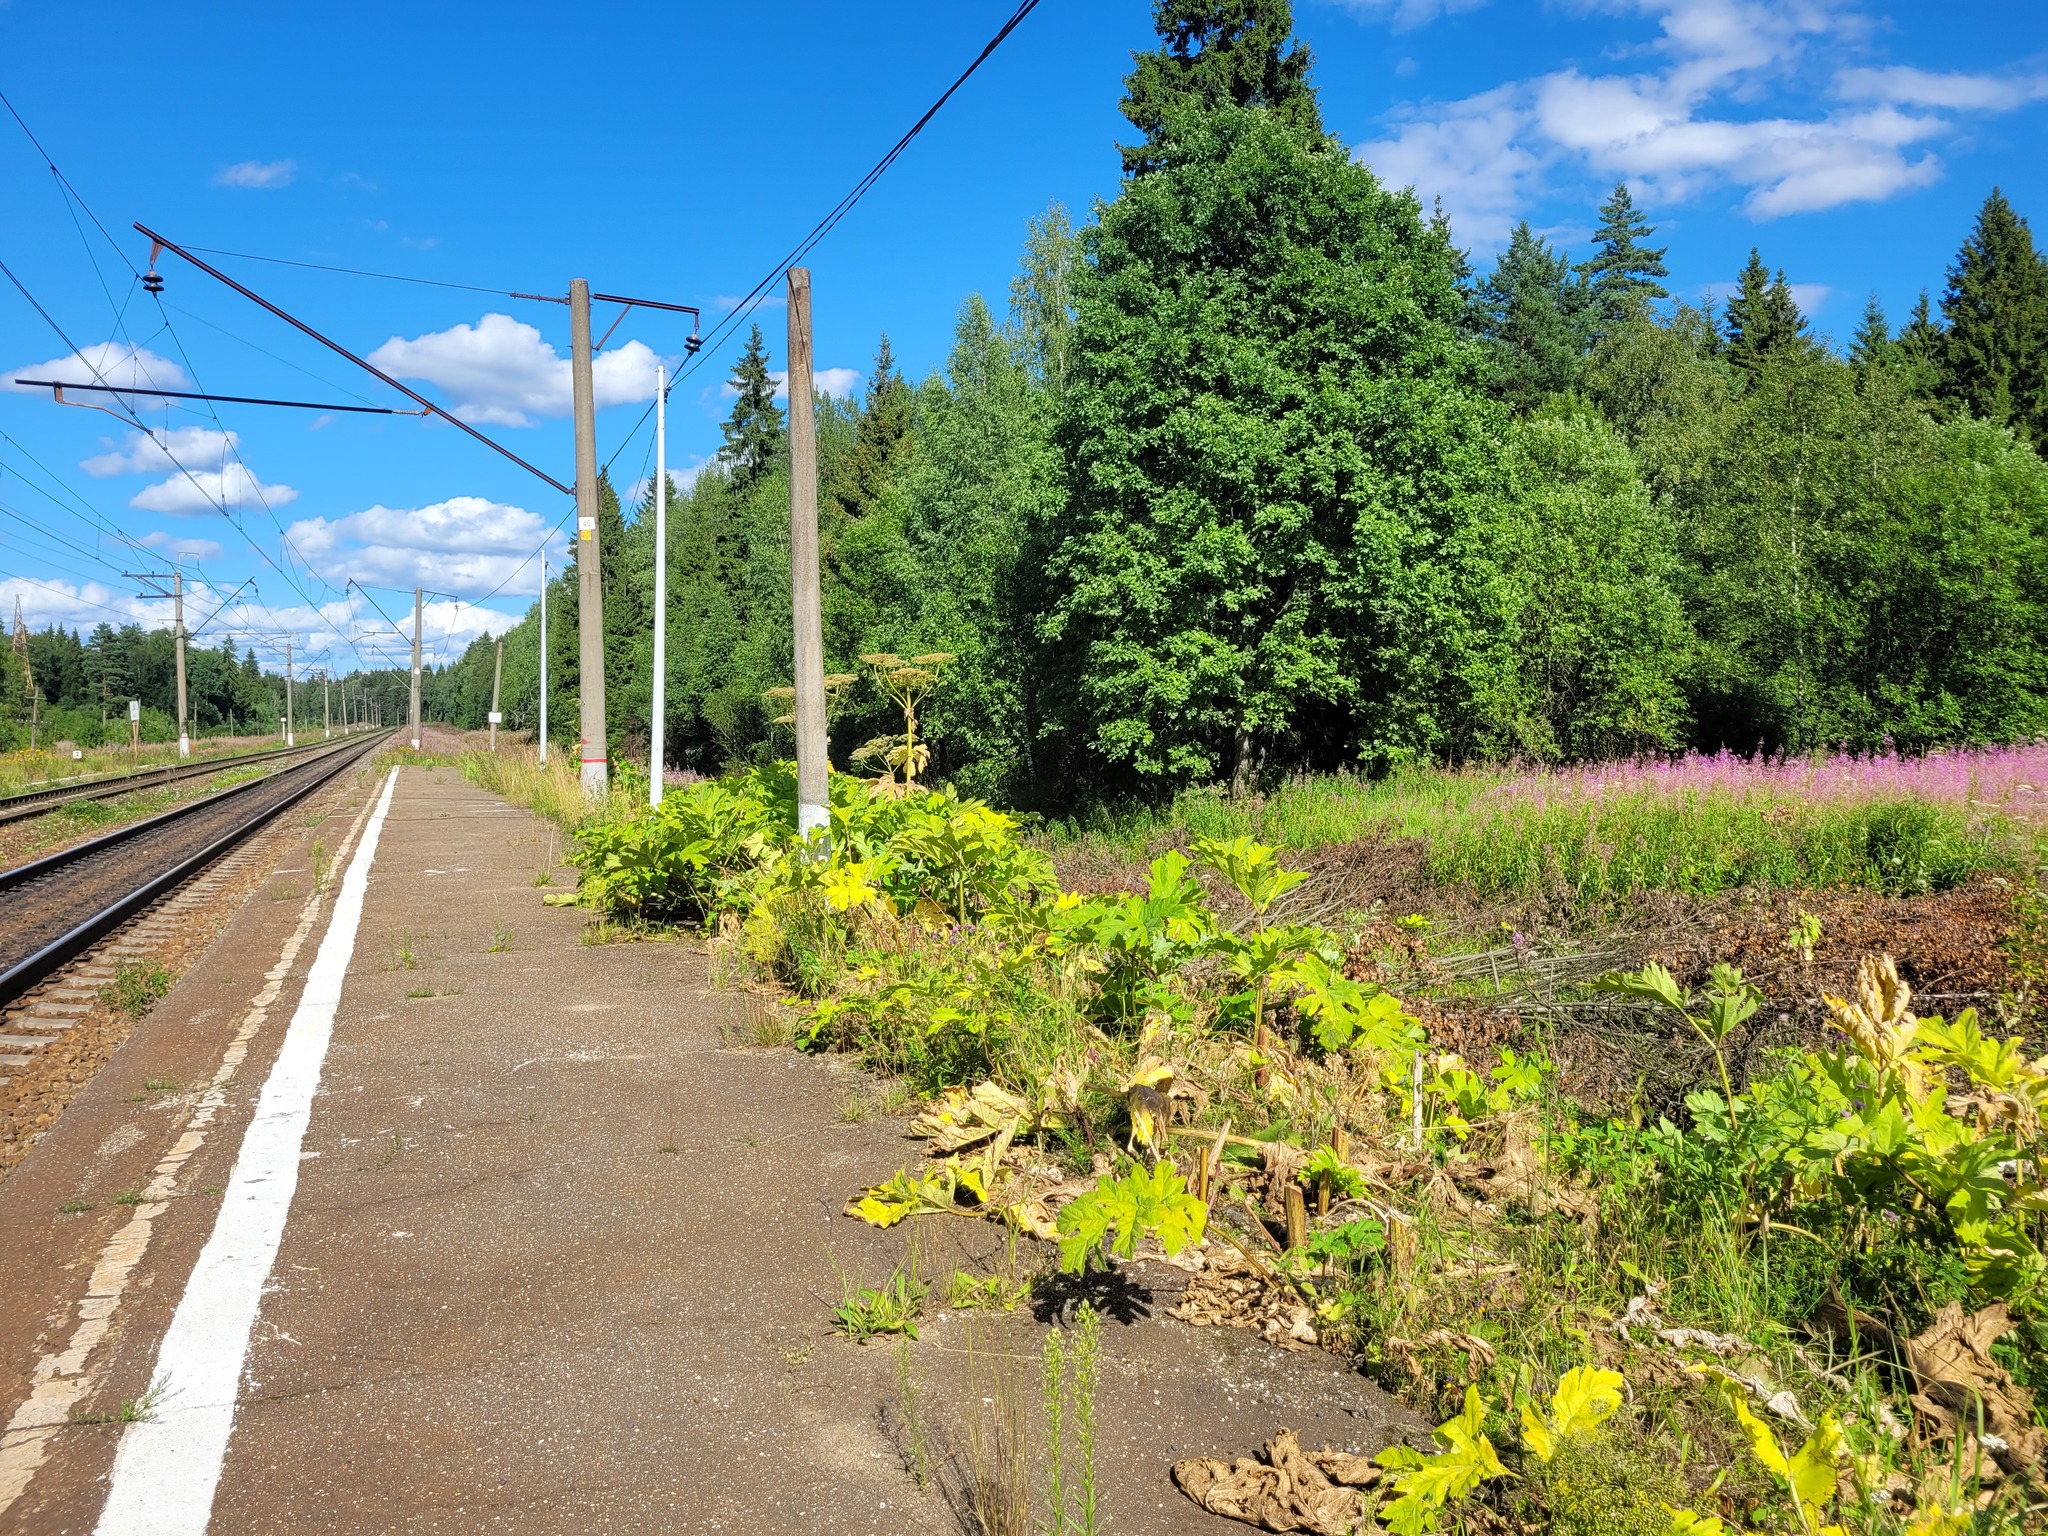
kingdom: Plantae
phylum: Tracheophyta
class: Magnoliopsida
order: Apiales
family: Apiaceae
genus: Heracleum
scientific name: Heracleum sosnowskyi
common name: Sosnowsky's hogweed
